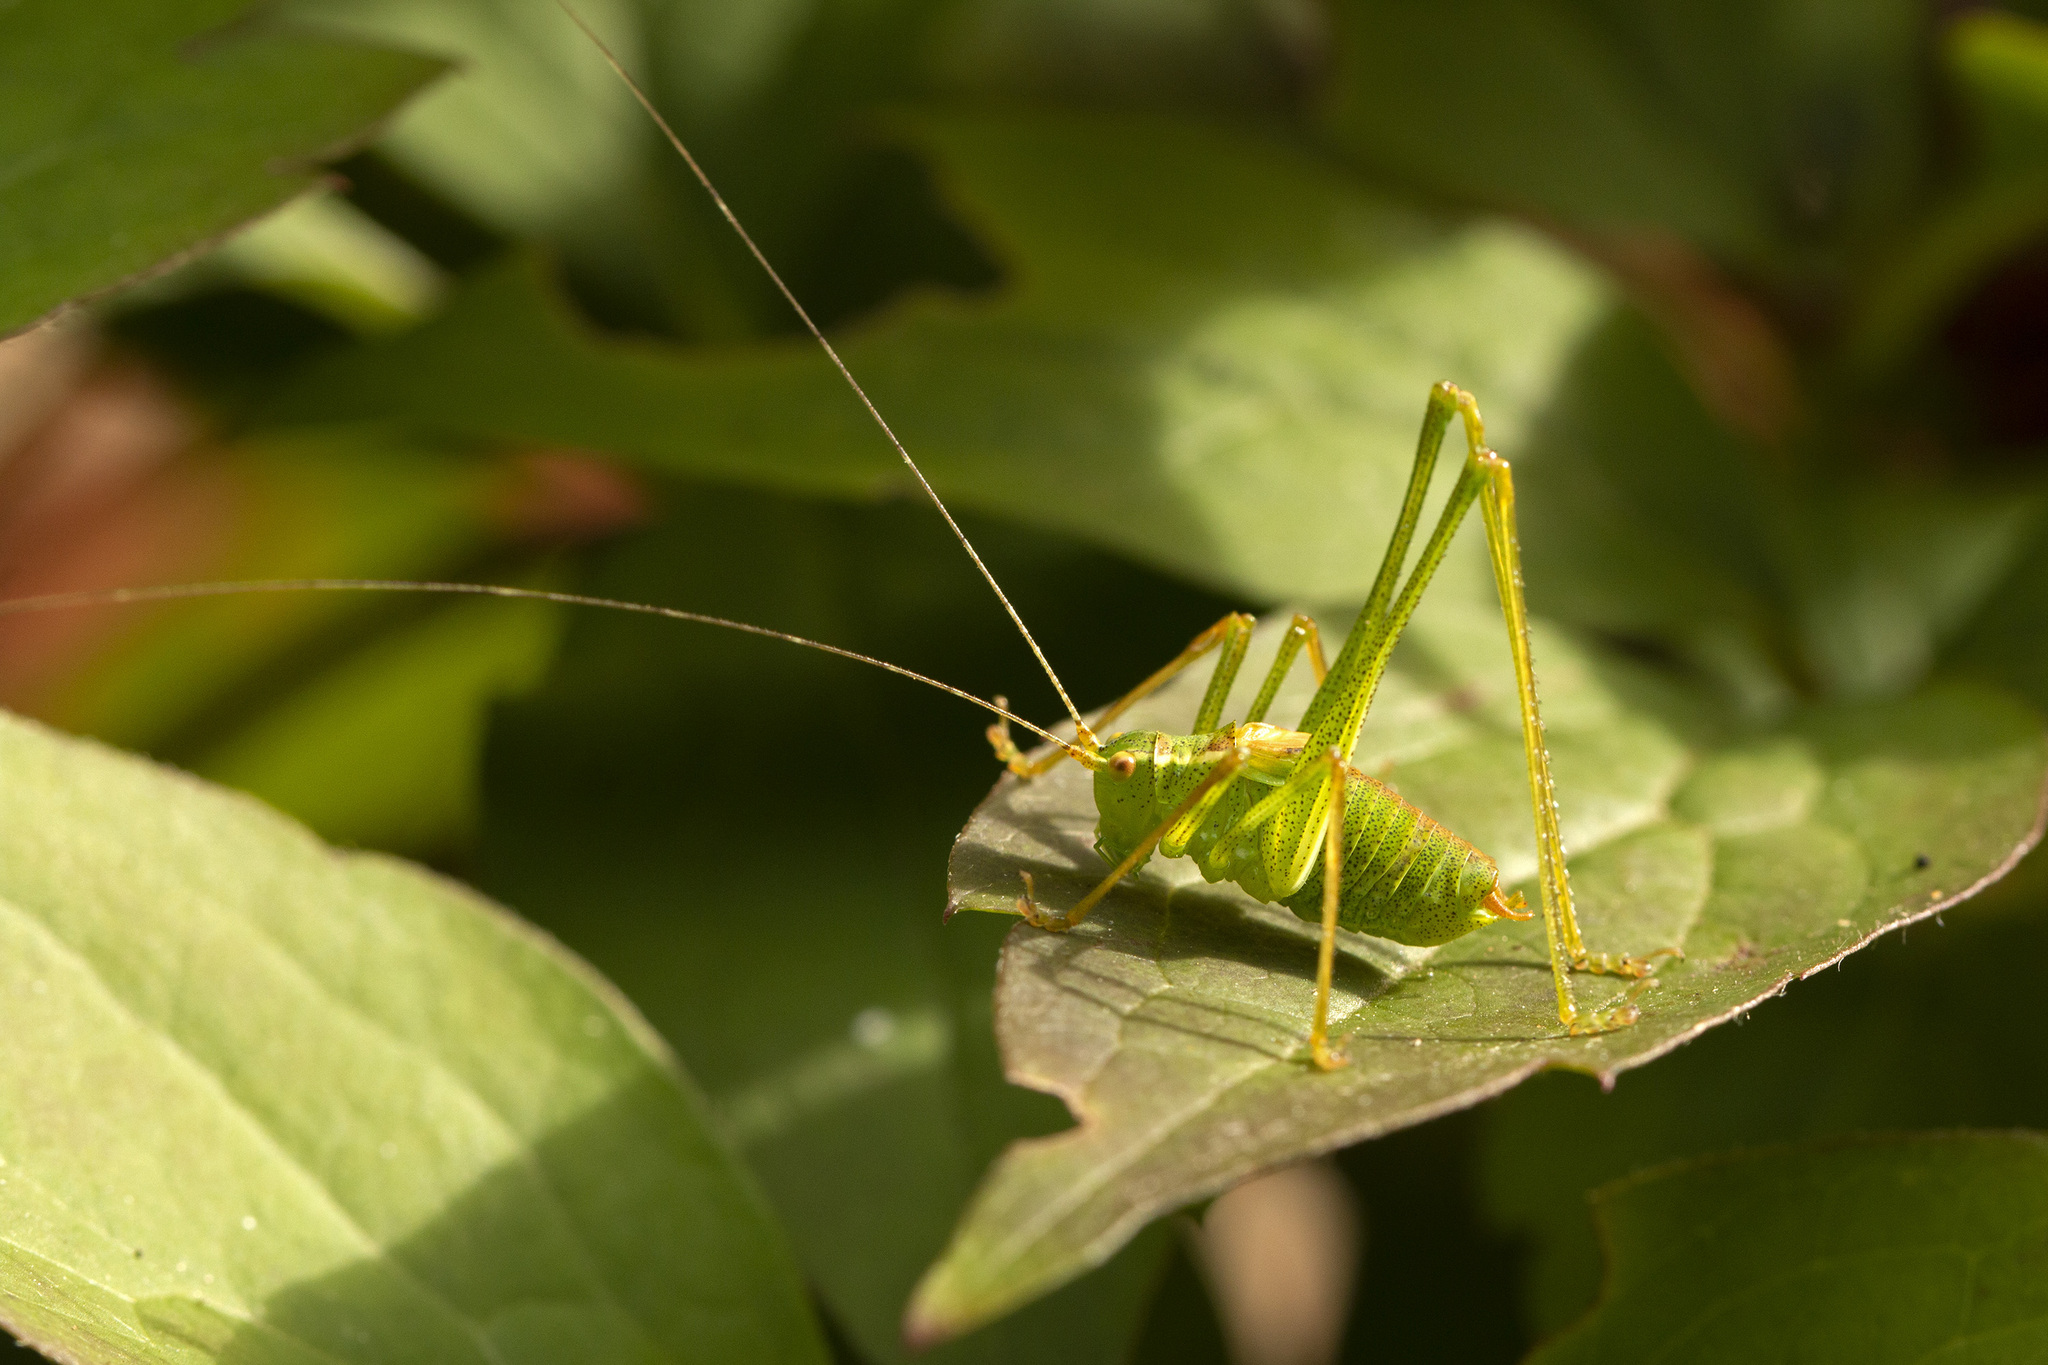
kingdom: Animalia
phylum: Arthropoda
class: Insecta
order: Orthoptera
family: Tettigoniidae
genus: Leptophyes
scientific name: Leptophyes punctatissima
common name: Speckled bush-cricket
